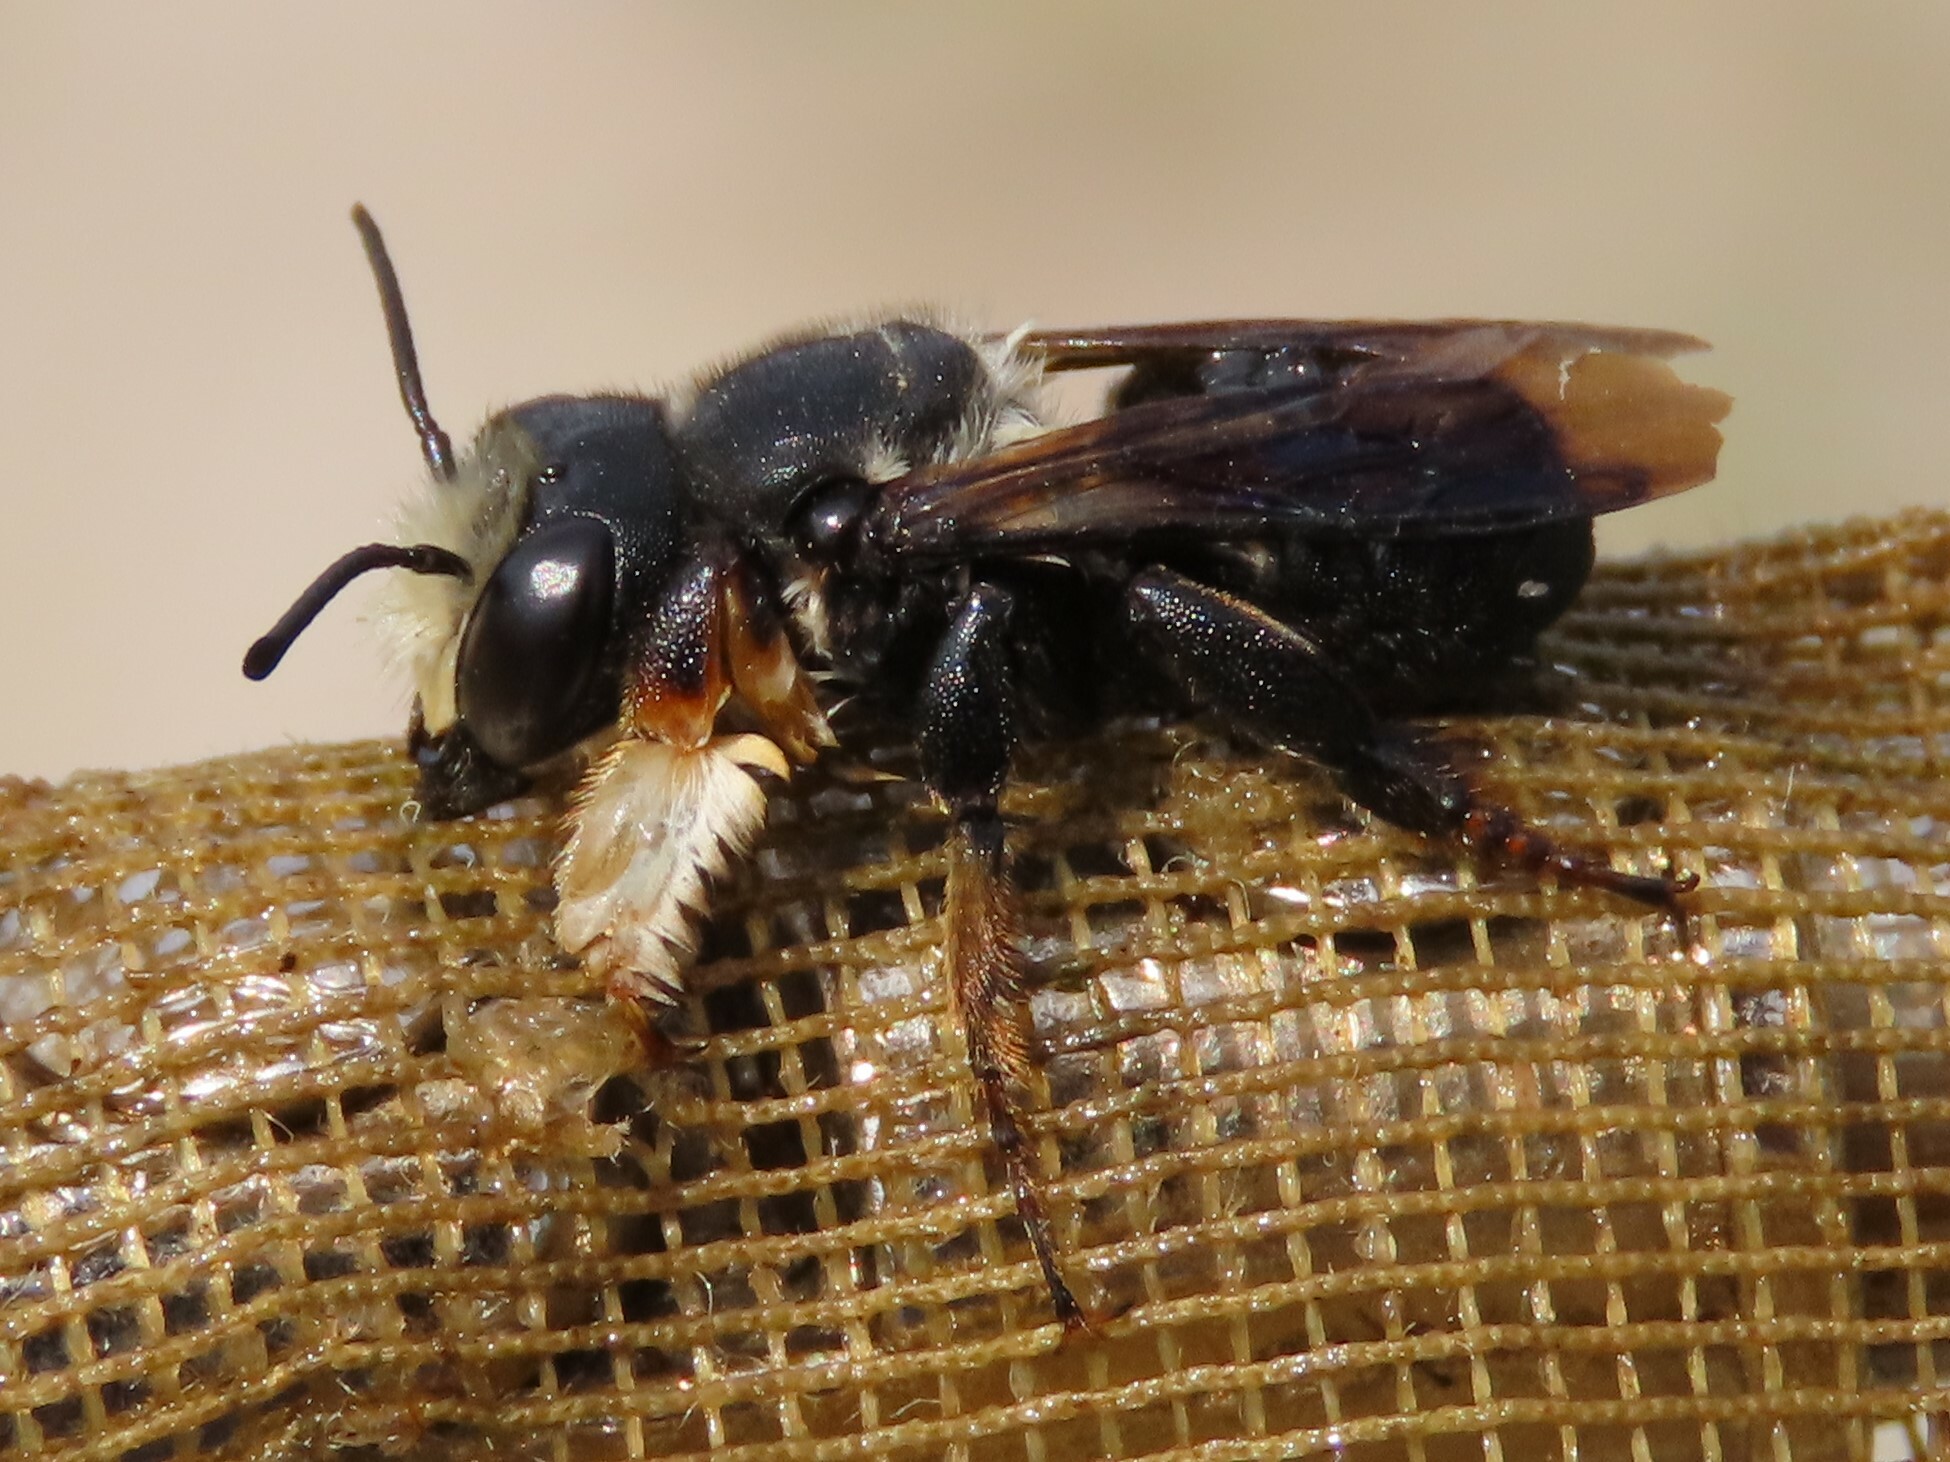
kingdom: Animalia
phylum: Arthropoda
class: Insecta
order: Hymenoptera
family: Megachilidae
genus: Megachile
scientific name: Megachile xylocopoides
